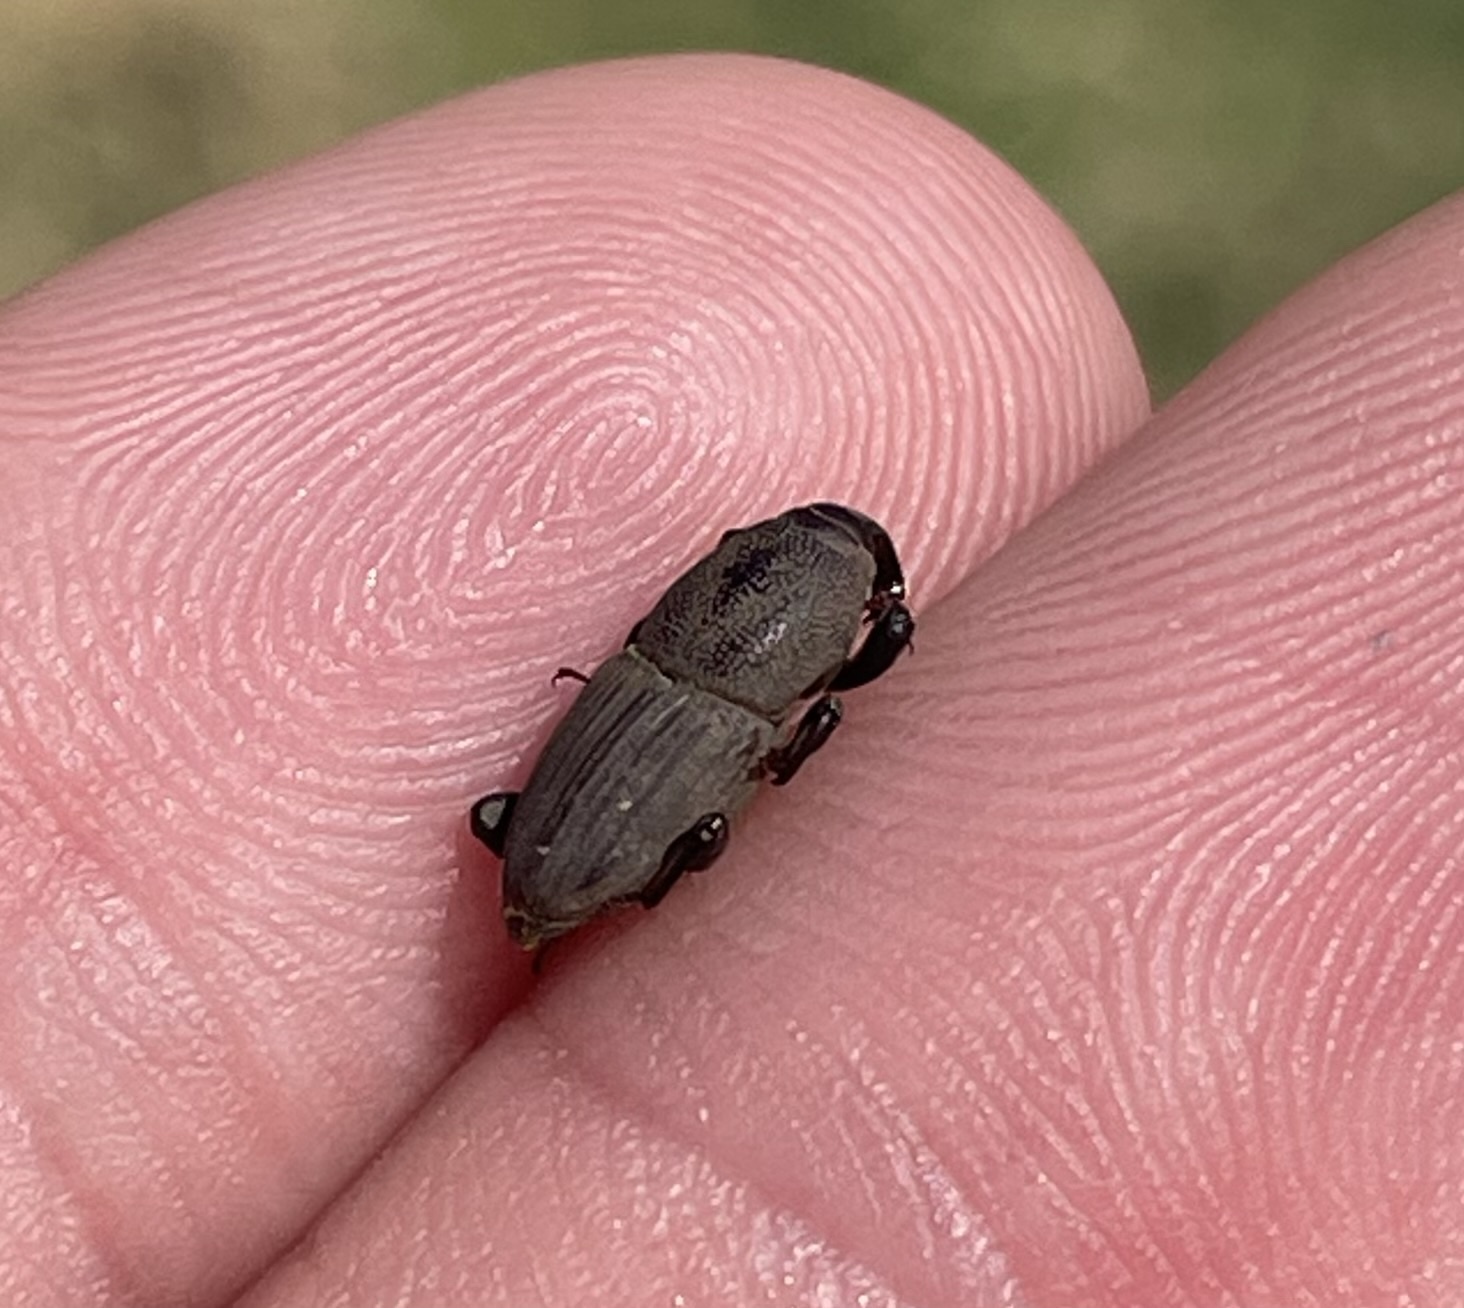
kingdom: Animalia
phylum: Arthropoda
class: Insecta
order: Coleoptera
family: Dryophthoridae
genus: Sphenophorus
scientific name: Sphenophorus coesifrons
